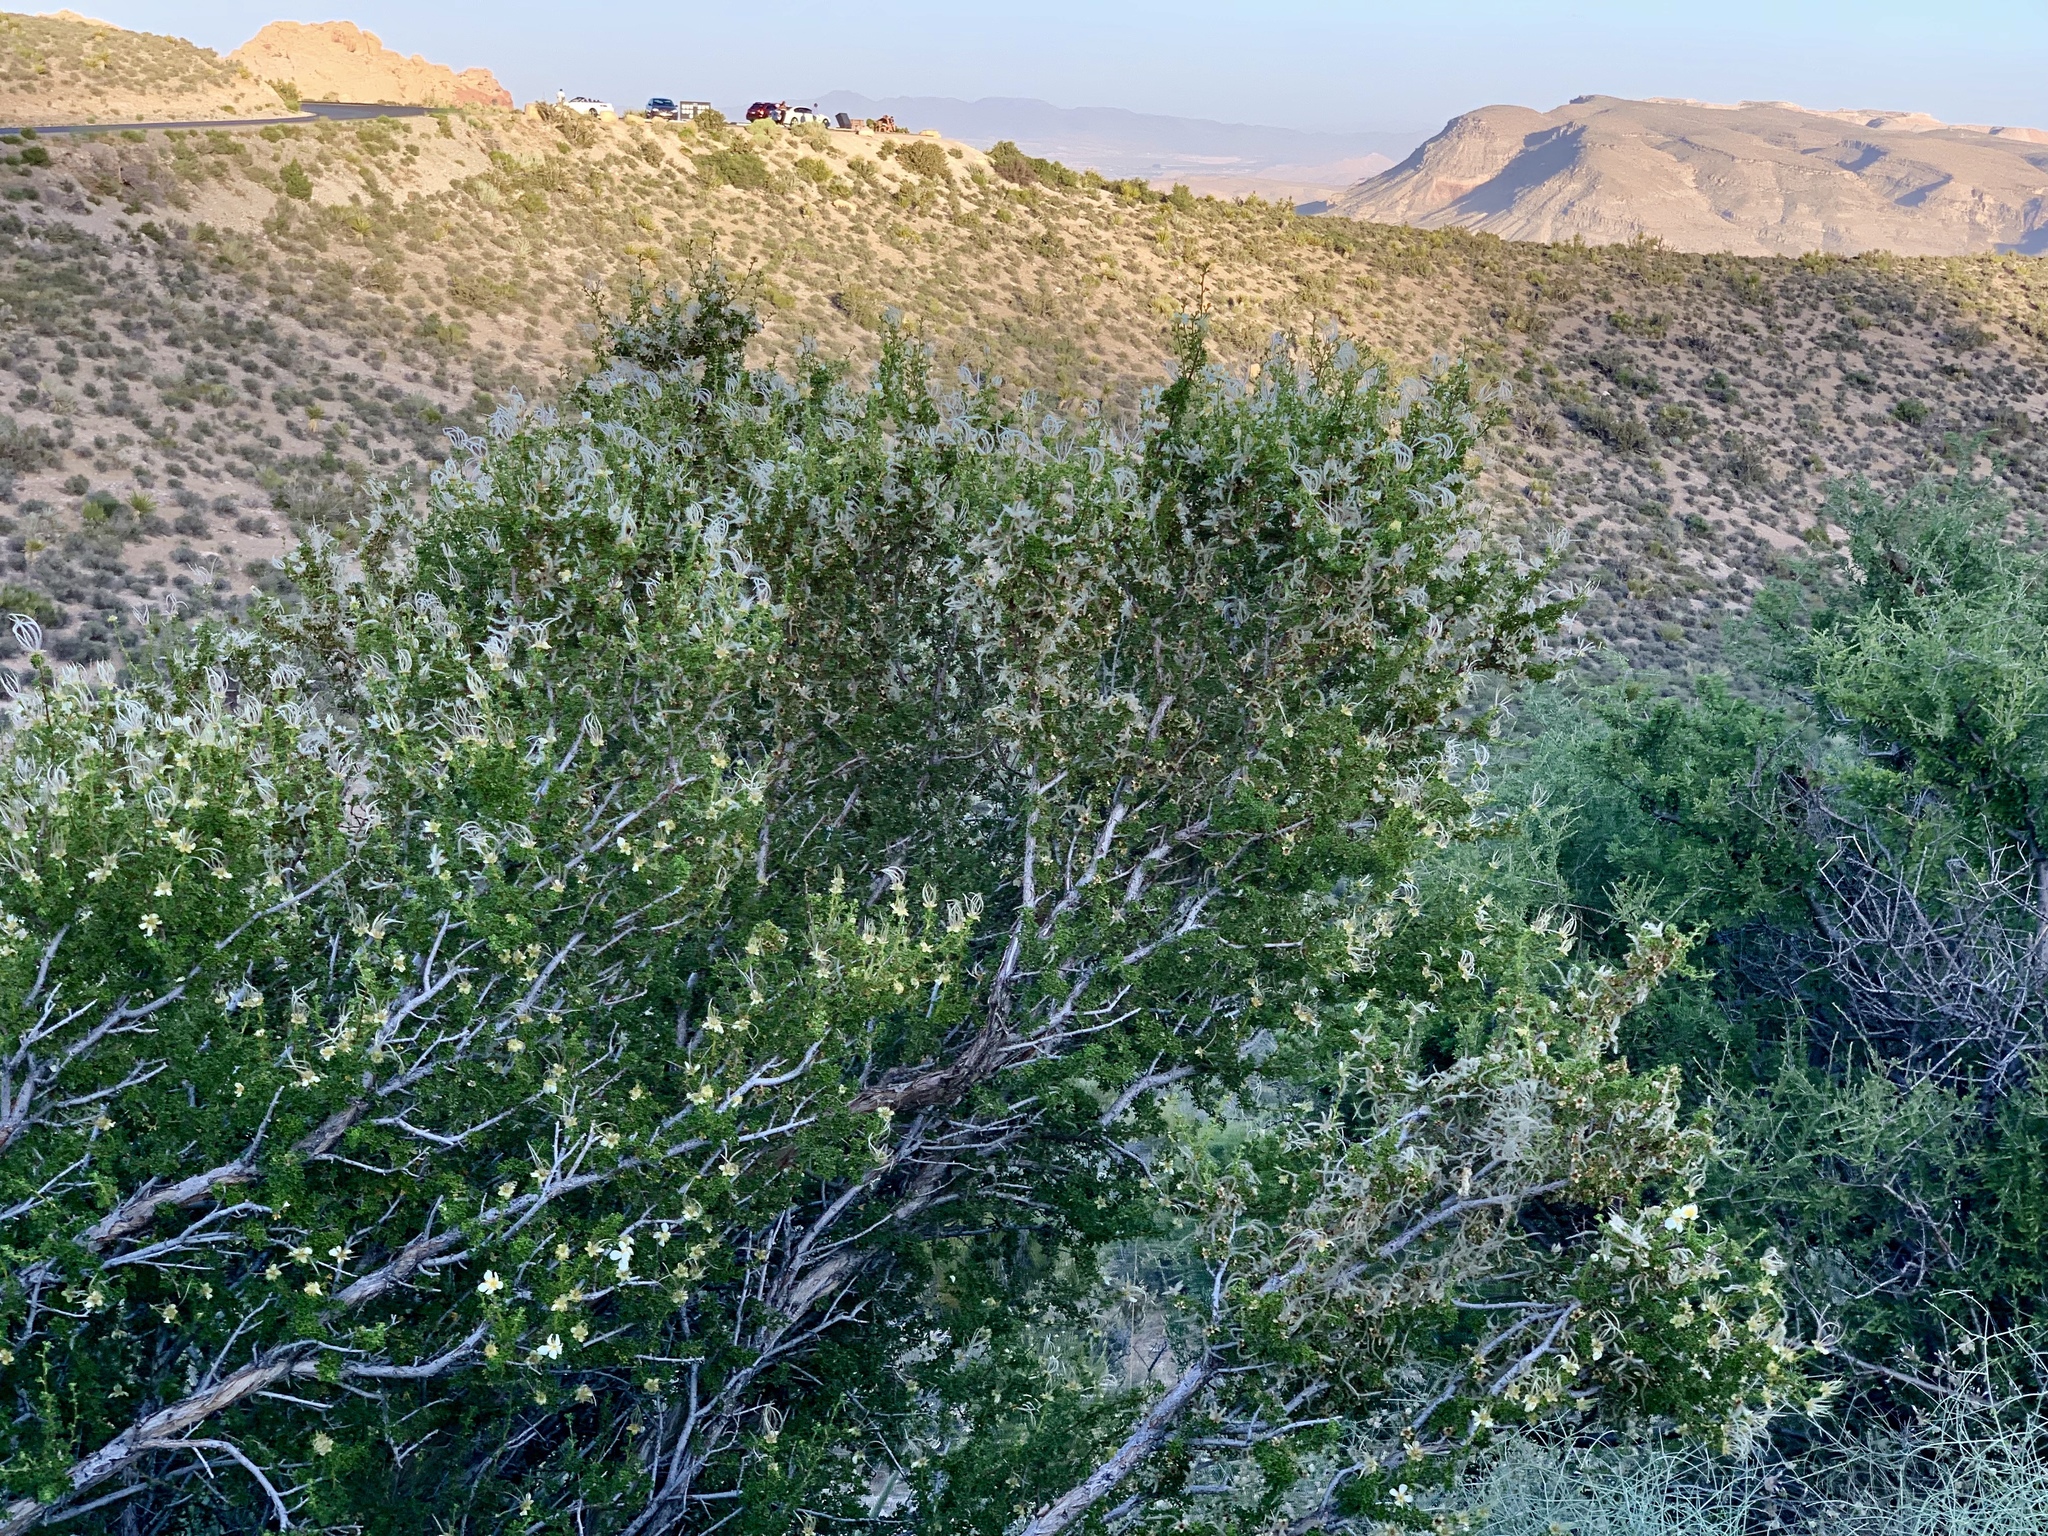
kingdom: Plantae
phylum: Tracheophyta
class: Magnoliopsida
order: Rosales
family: Rosaceae
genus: Purshia
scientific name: Purshia stansburiana
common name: Stansbury's cliffrose
